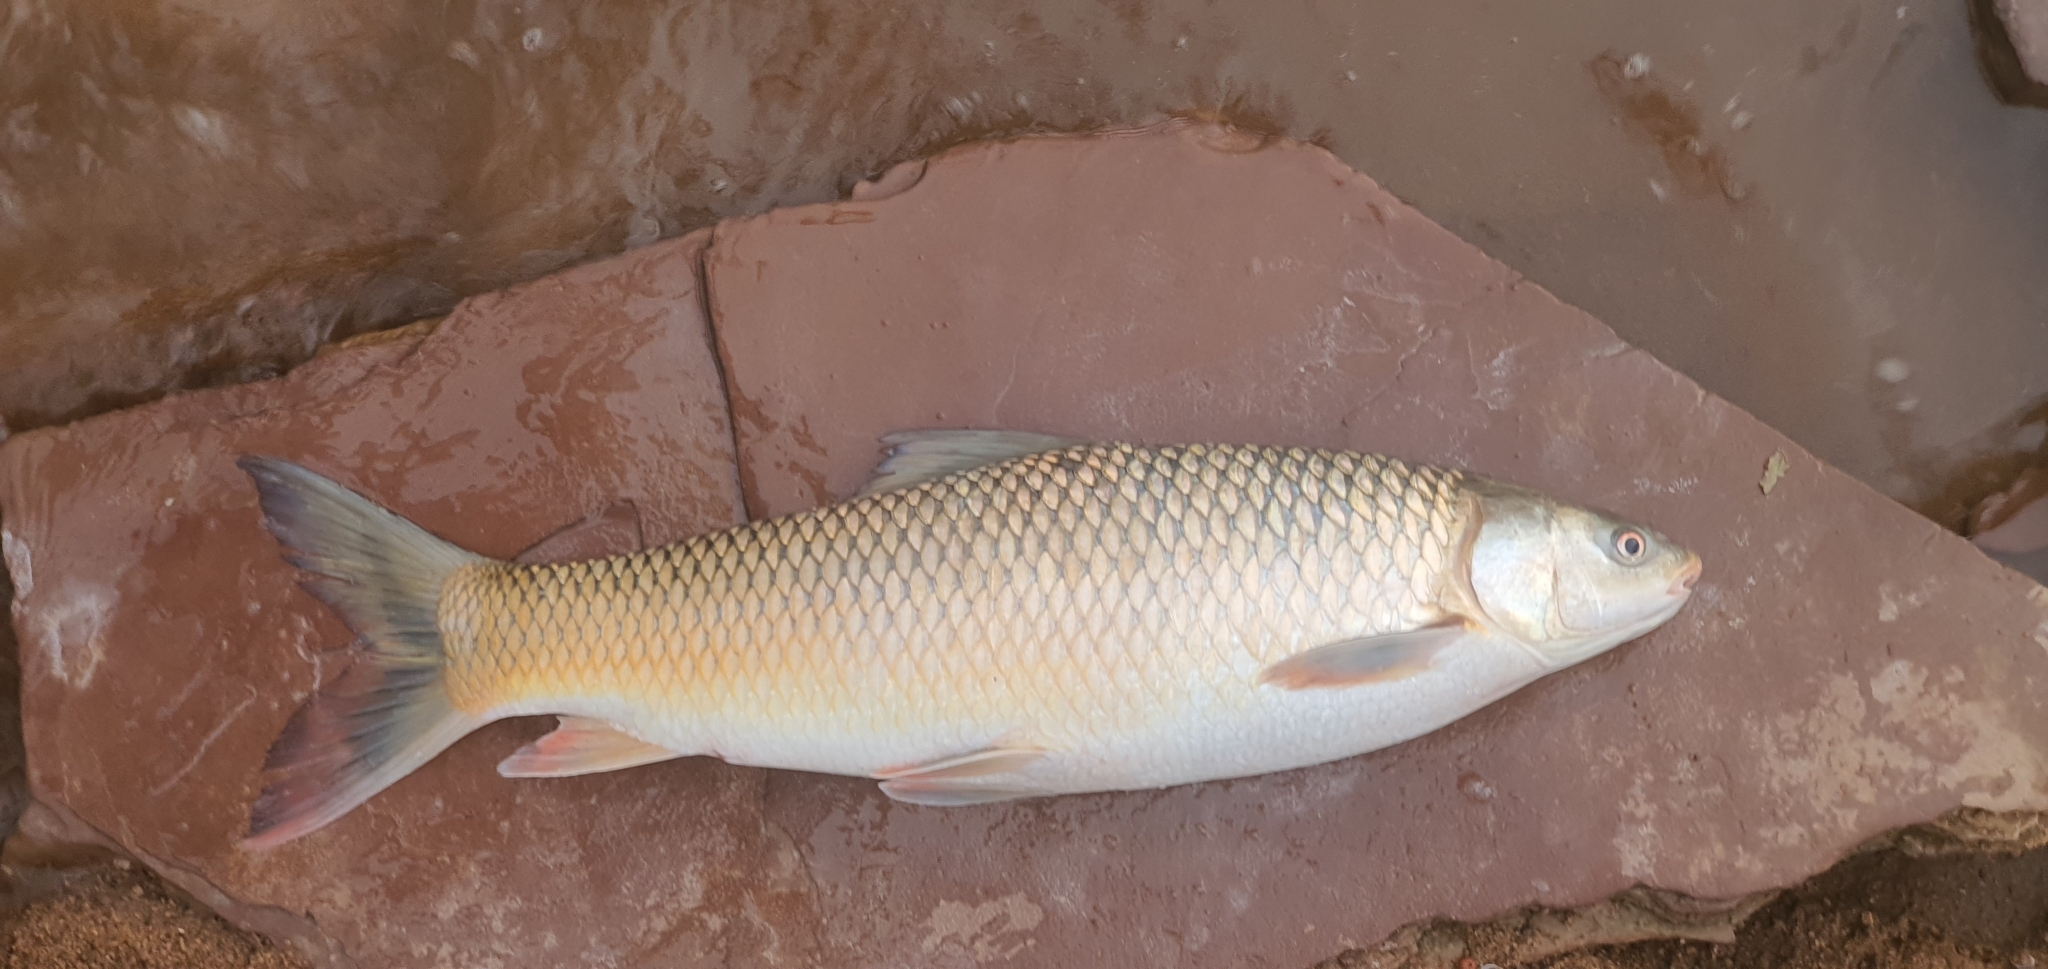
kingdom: Animalia
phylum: Chordata
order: Cypriniformes
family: Cyprinidae
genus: Cirrhinus
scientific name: Cirrhinus mrigala
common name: Mrigal
